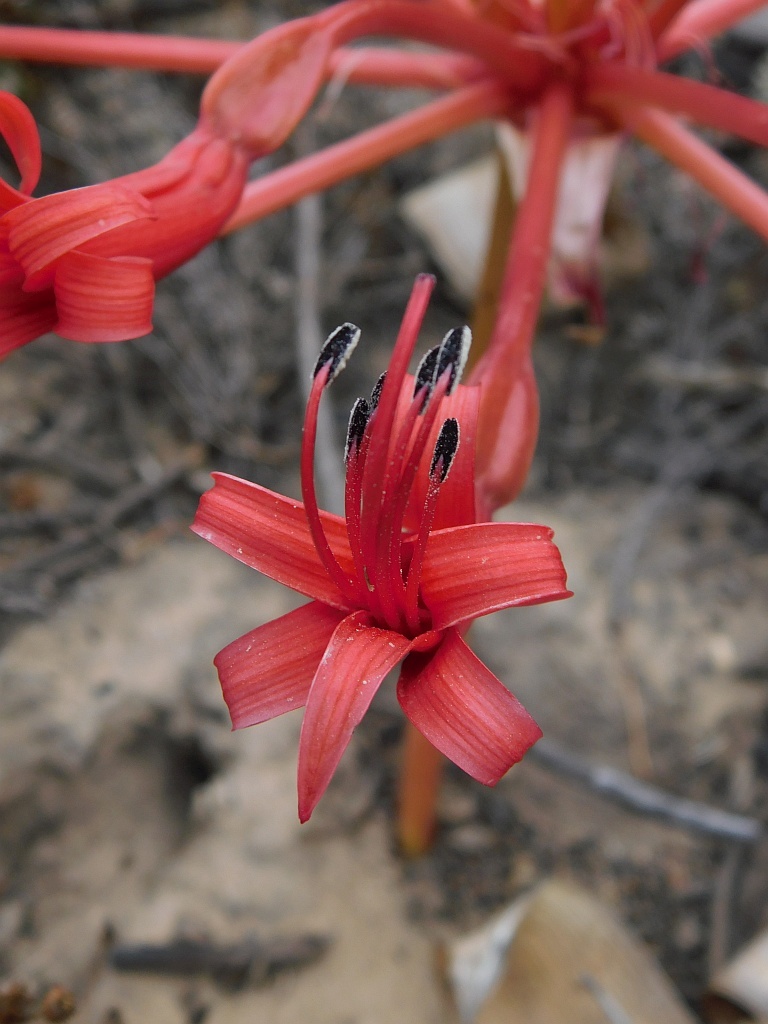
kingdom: Plantae
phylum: Tracheophyta
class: Liliopsida
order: Asparagales
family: Amaryllidaceae
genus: Brunsvigia
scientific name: Brunsvigia orientalis
